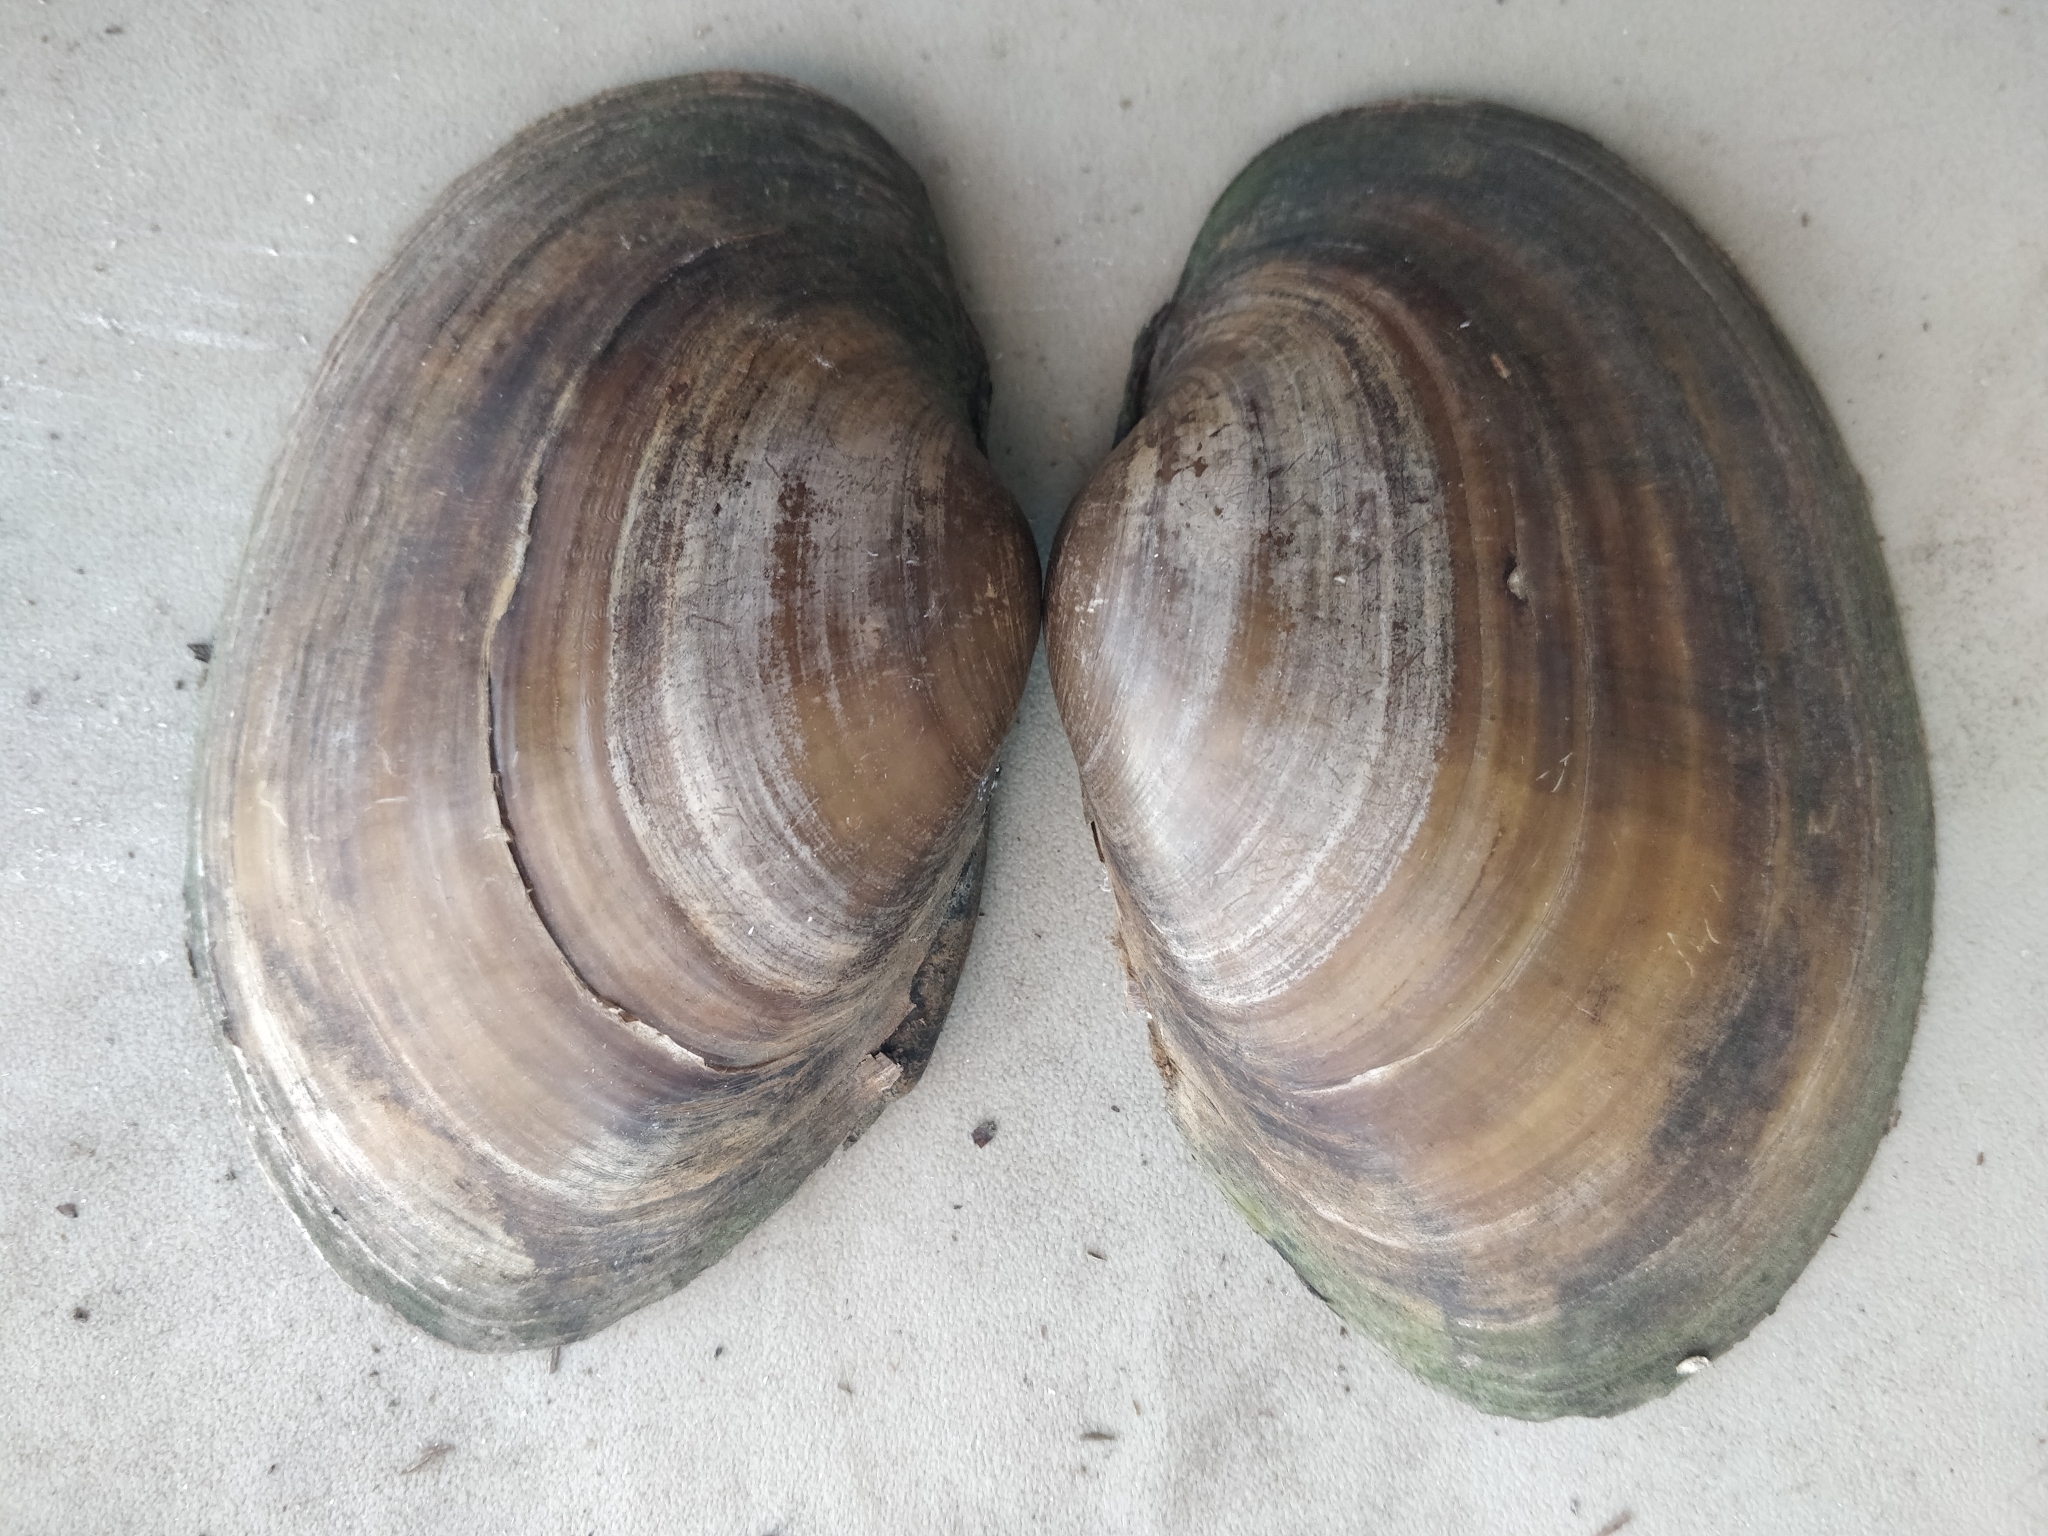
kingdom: Animalia
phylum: Mollusca
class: Bivalvia
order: Unionida
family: Unionidae
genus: Lampsilis
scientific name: Lampsilis cardium
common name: Plain pocketbook
